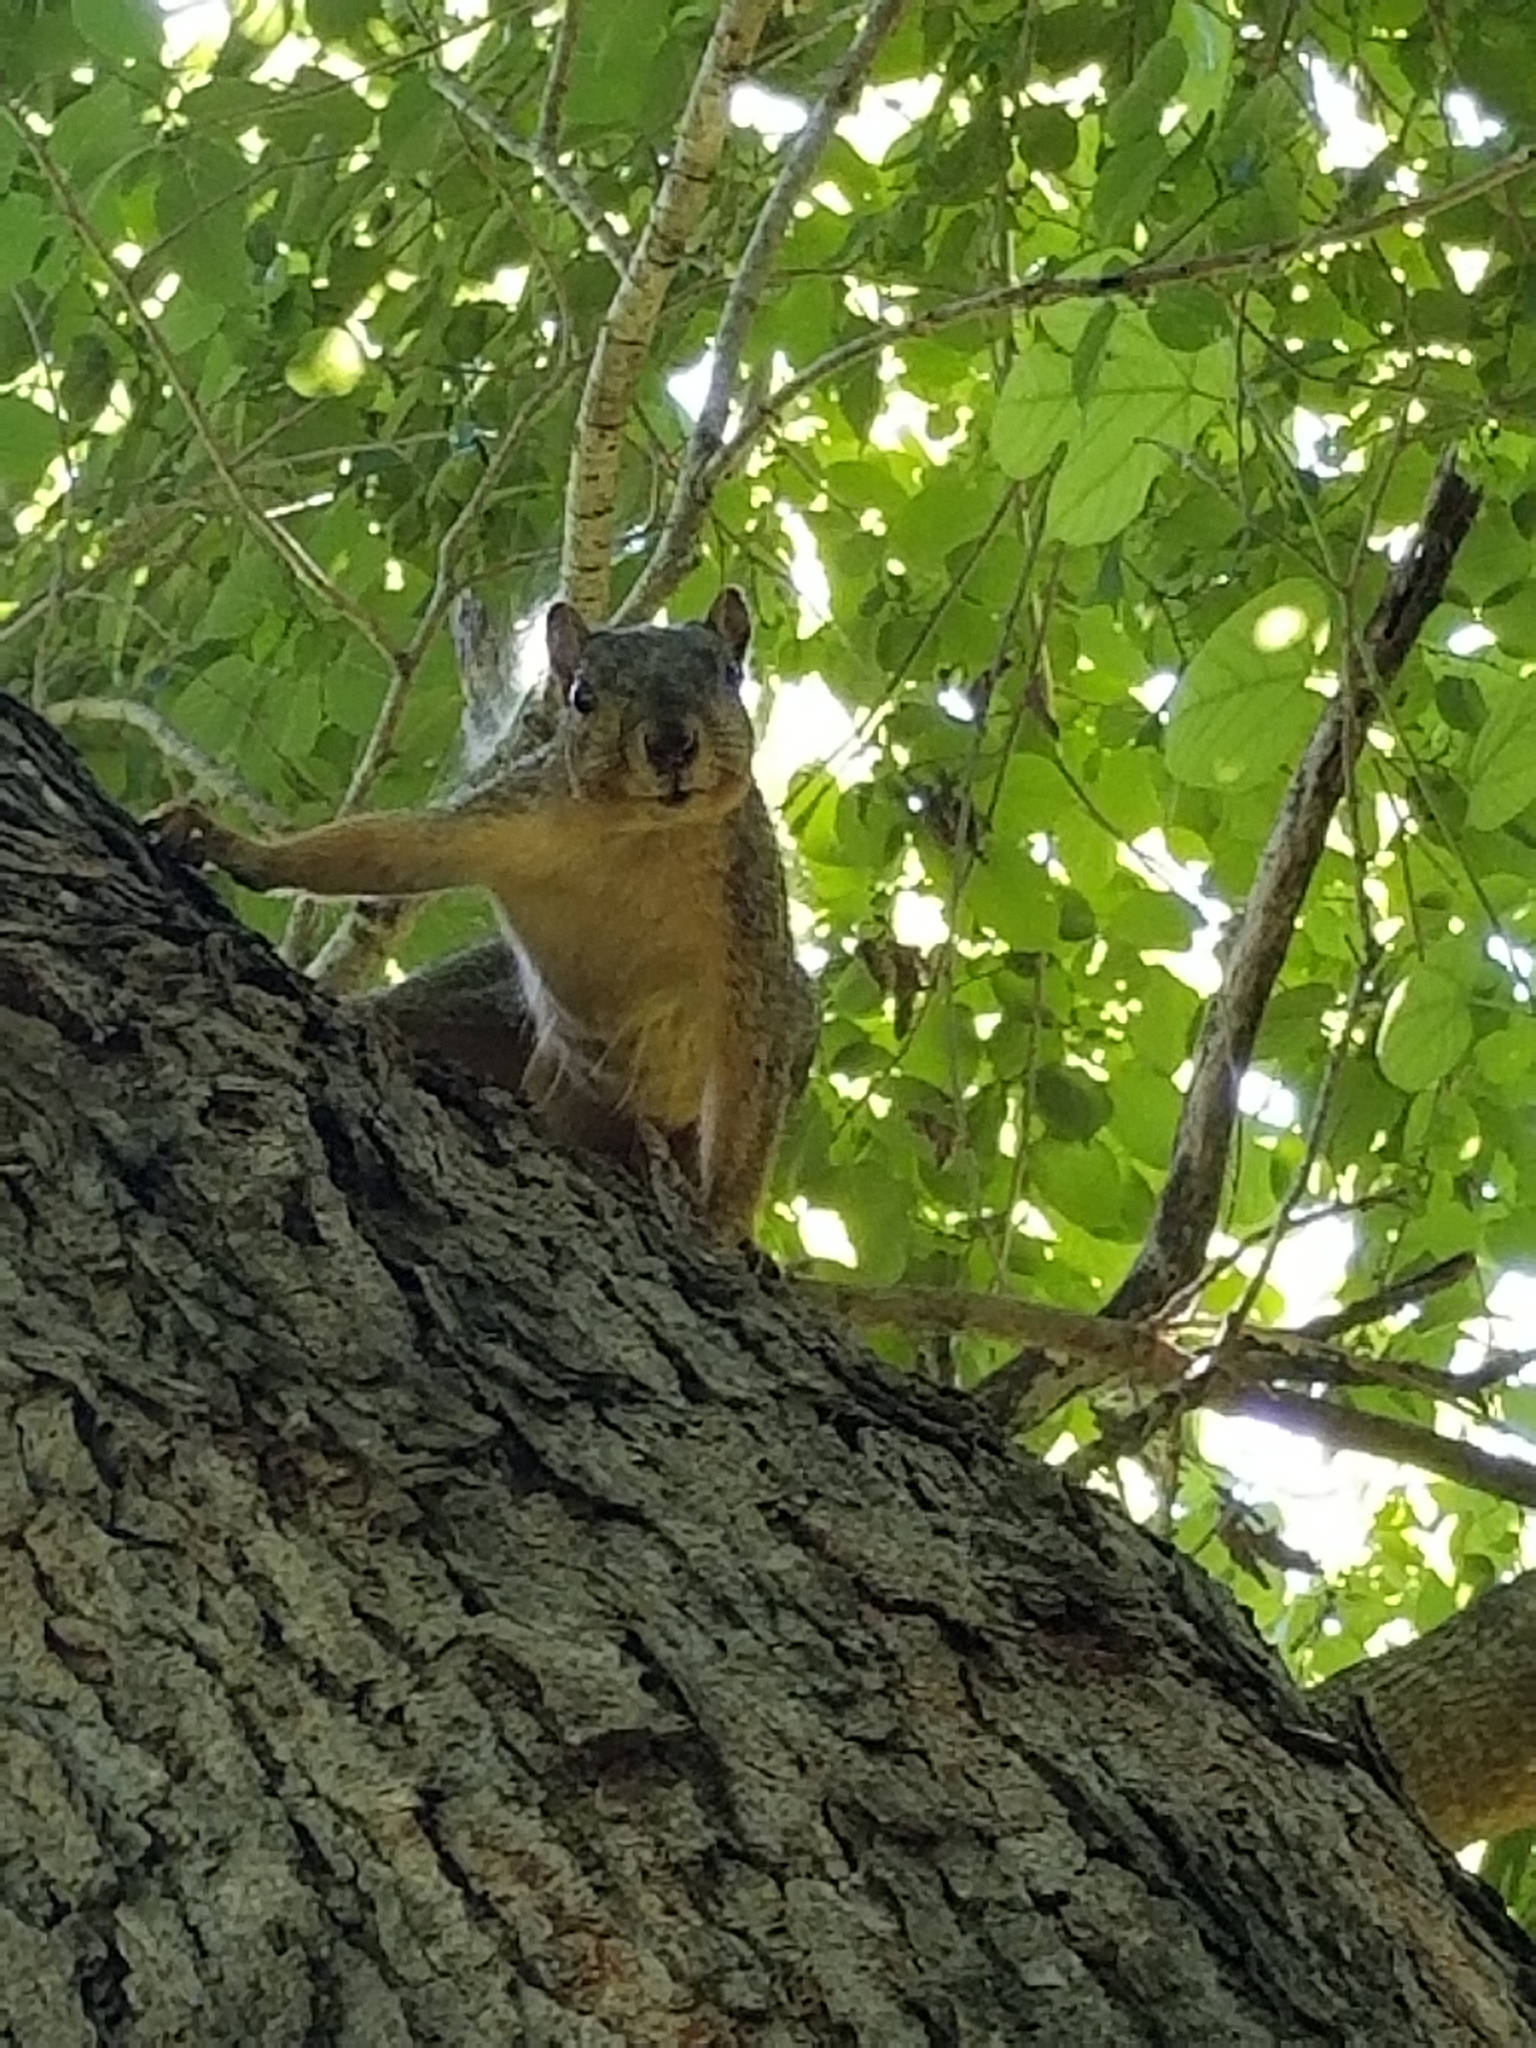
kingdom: Animalia
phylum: Chordata
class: Mammalia
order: Rodentia
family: Sciuridae
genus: Sciurus
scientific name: Sciurus niger
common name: Fox squirrel
